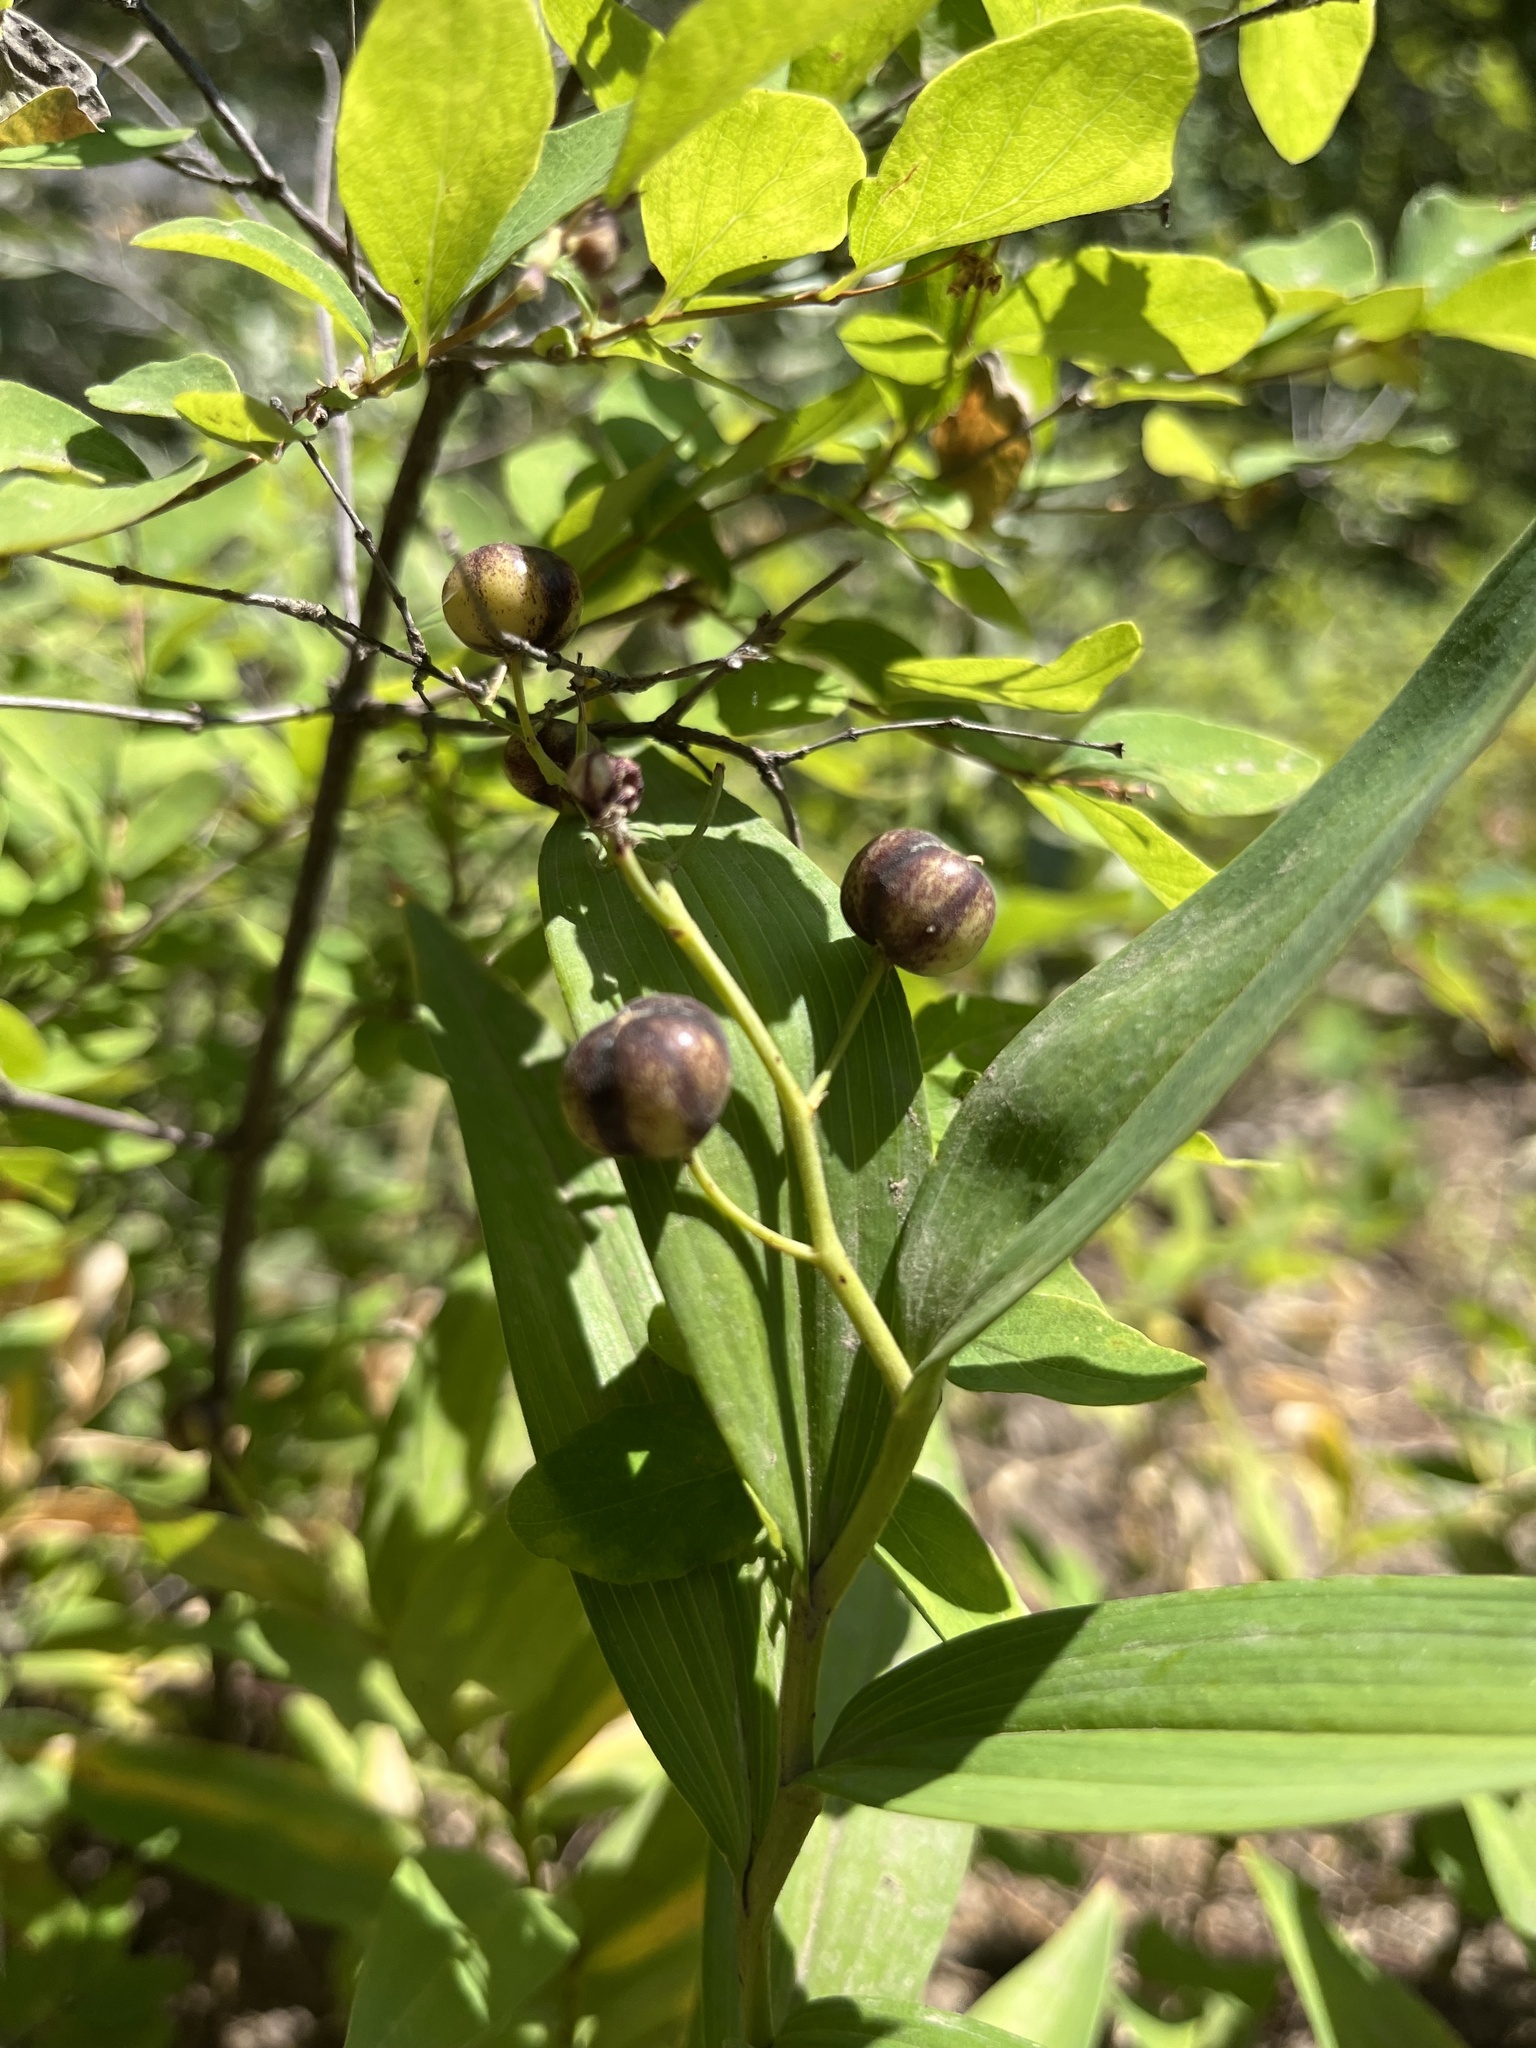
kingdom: Plantae
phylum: Tracheophyta
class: Liliopsida
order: Asparagales
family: Asparagaceae
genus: Maianthemum
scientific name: Maianthemum stellatum
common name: Little false solomon's seal
